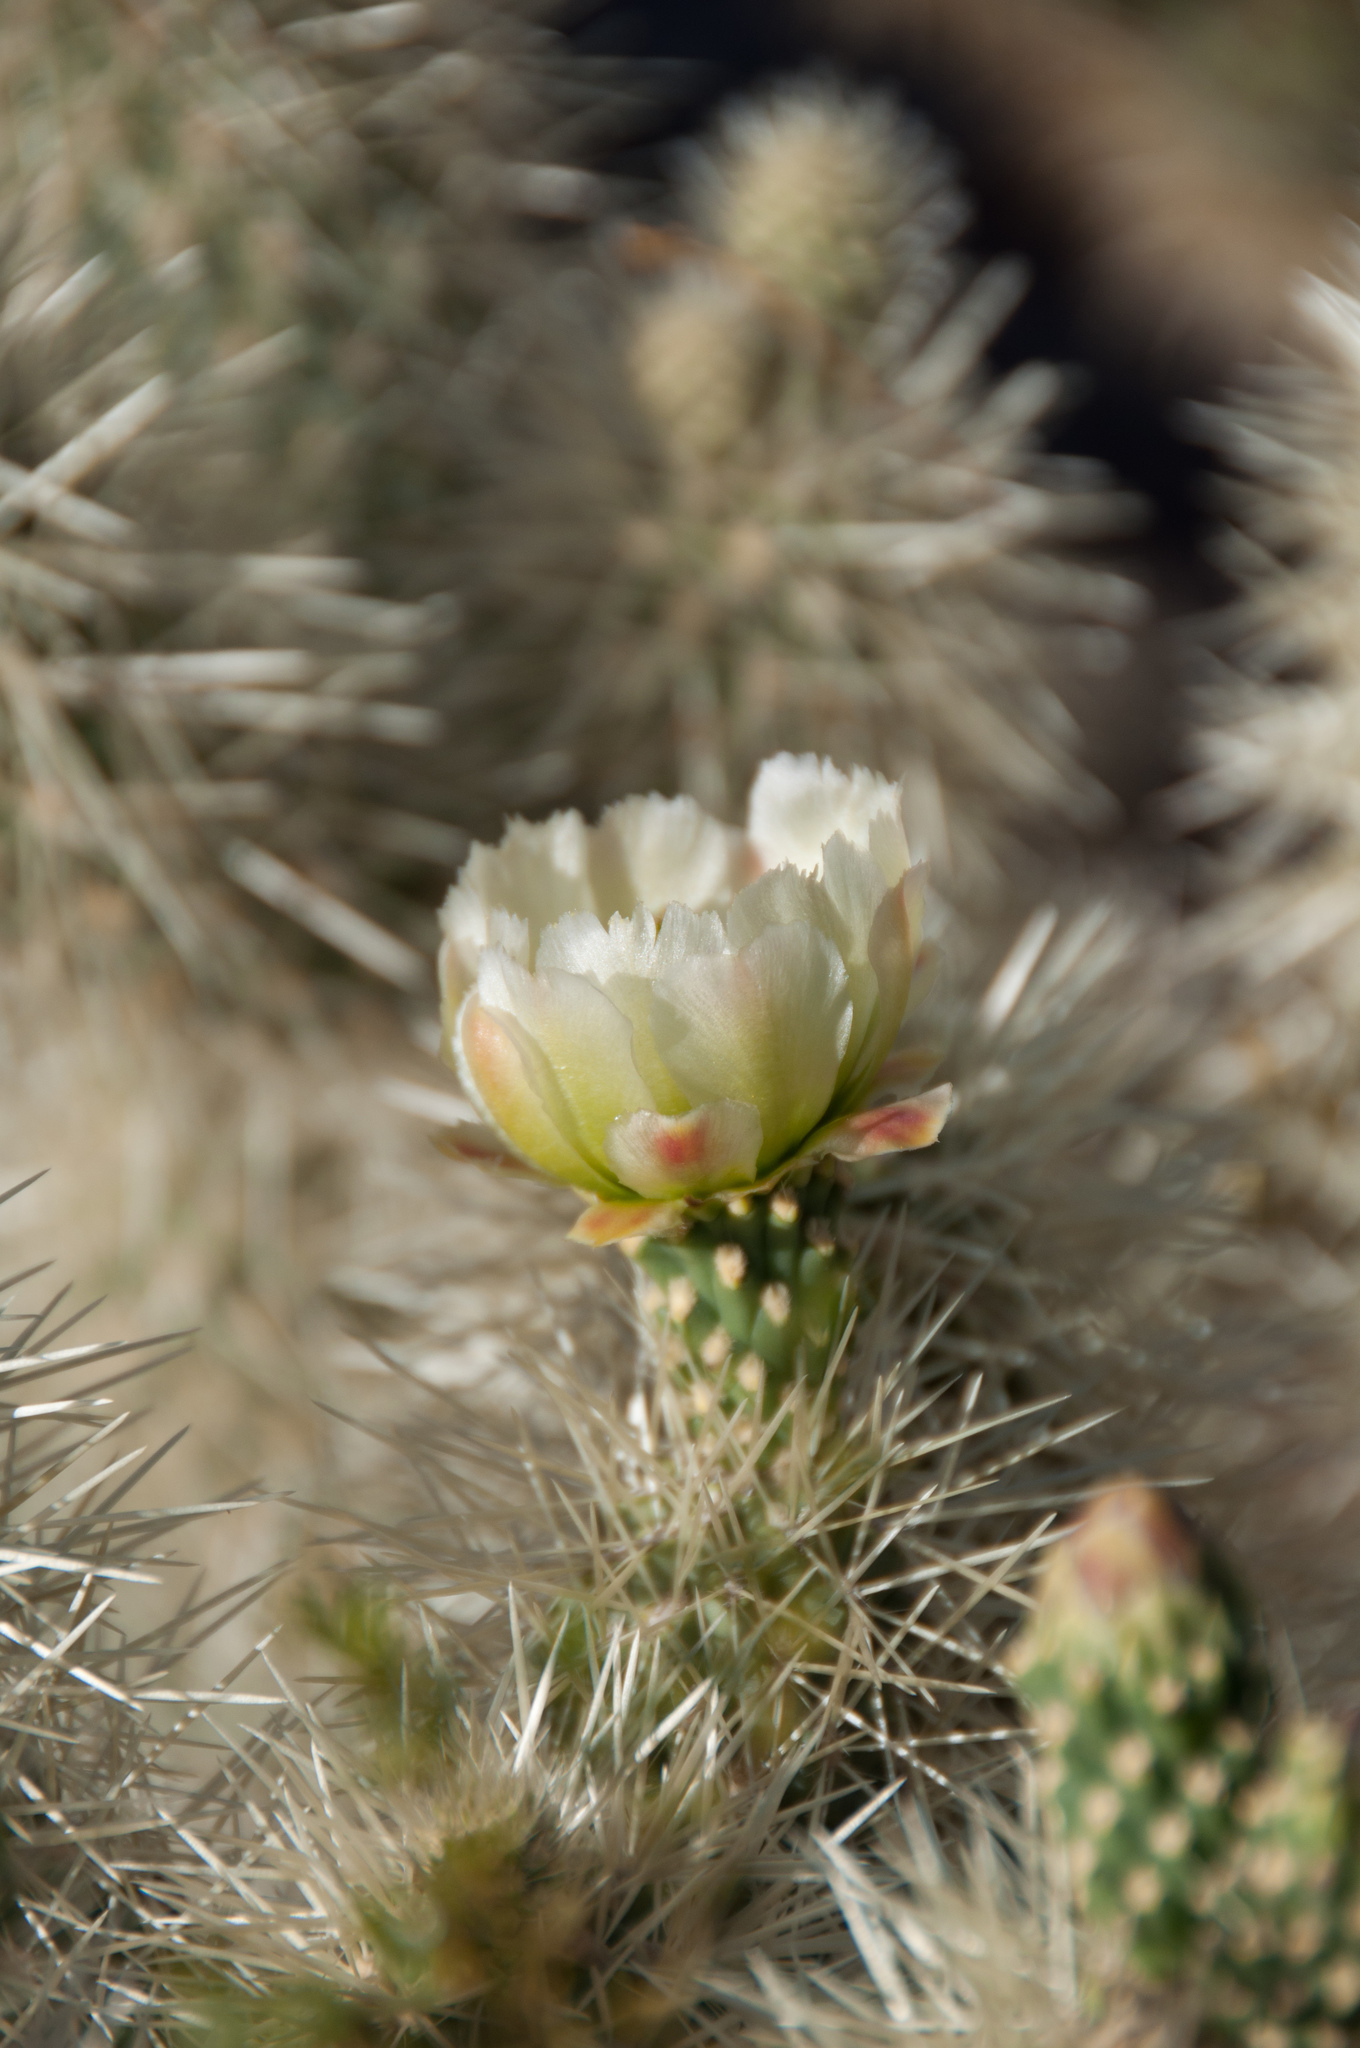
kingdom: Plantae
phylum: Tracheophyta
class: Magnoliopsida
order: Caryophyllales
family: Cactaceae
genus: Cylindropuntia
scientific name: Cylindropuntia fosbergii
